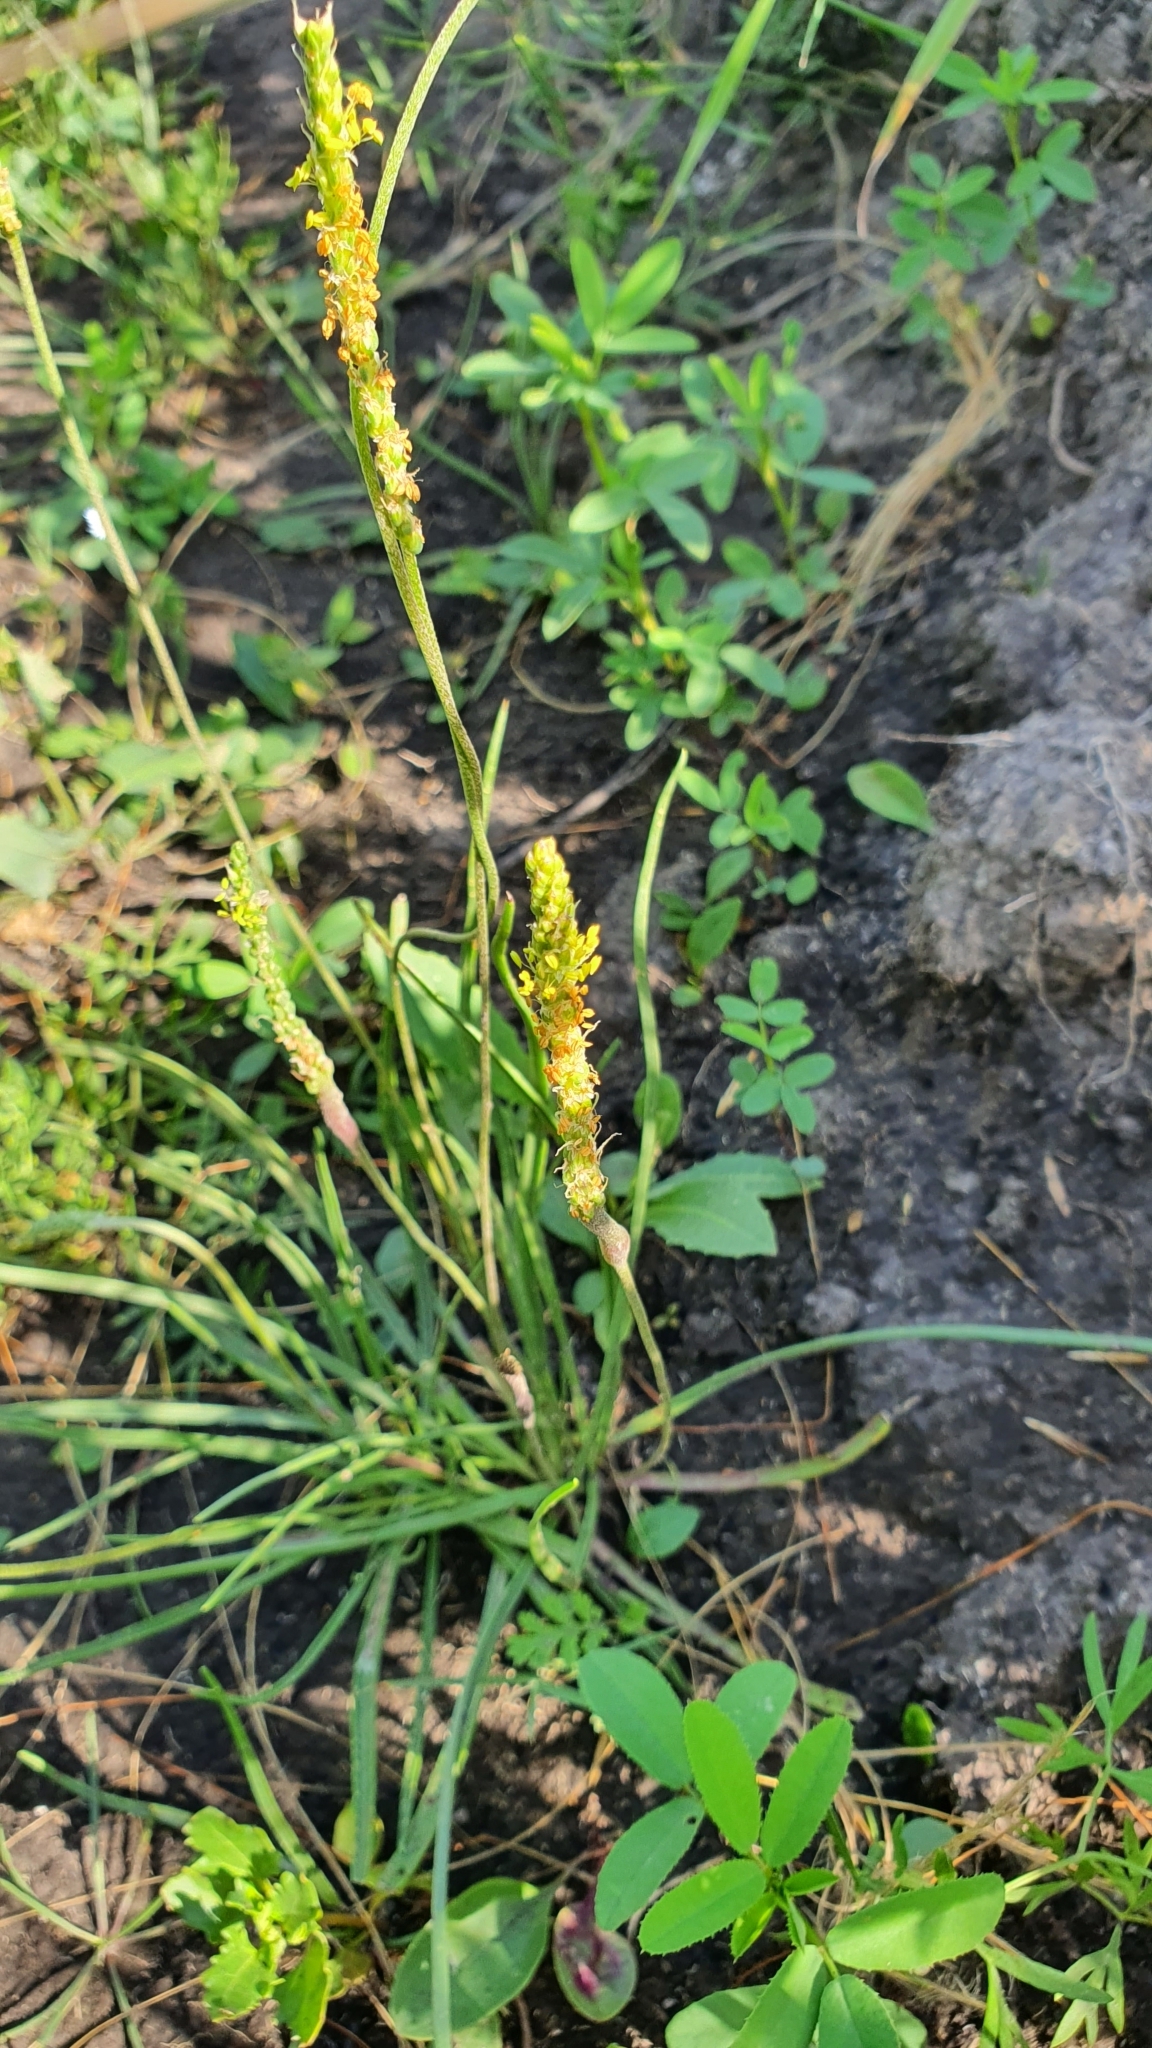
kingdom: Plantae
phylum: Tracheophyta
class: Magnoliopsida
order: Lamiales
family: Plantaginaceae
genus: Plantago
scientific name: Plantago salsa
